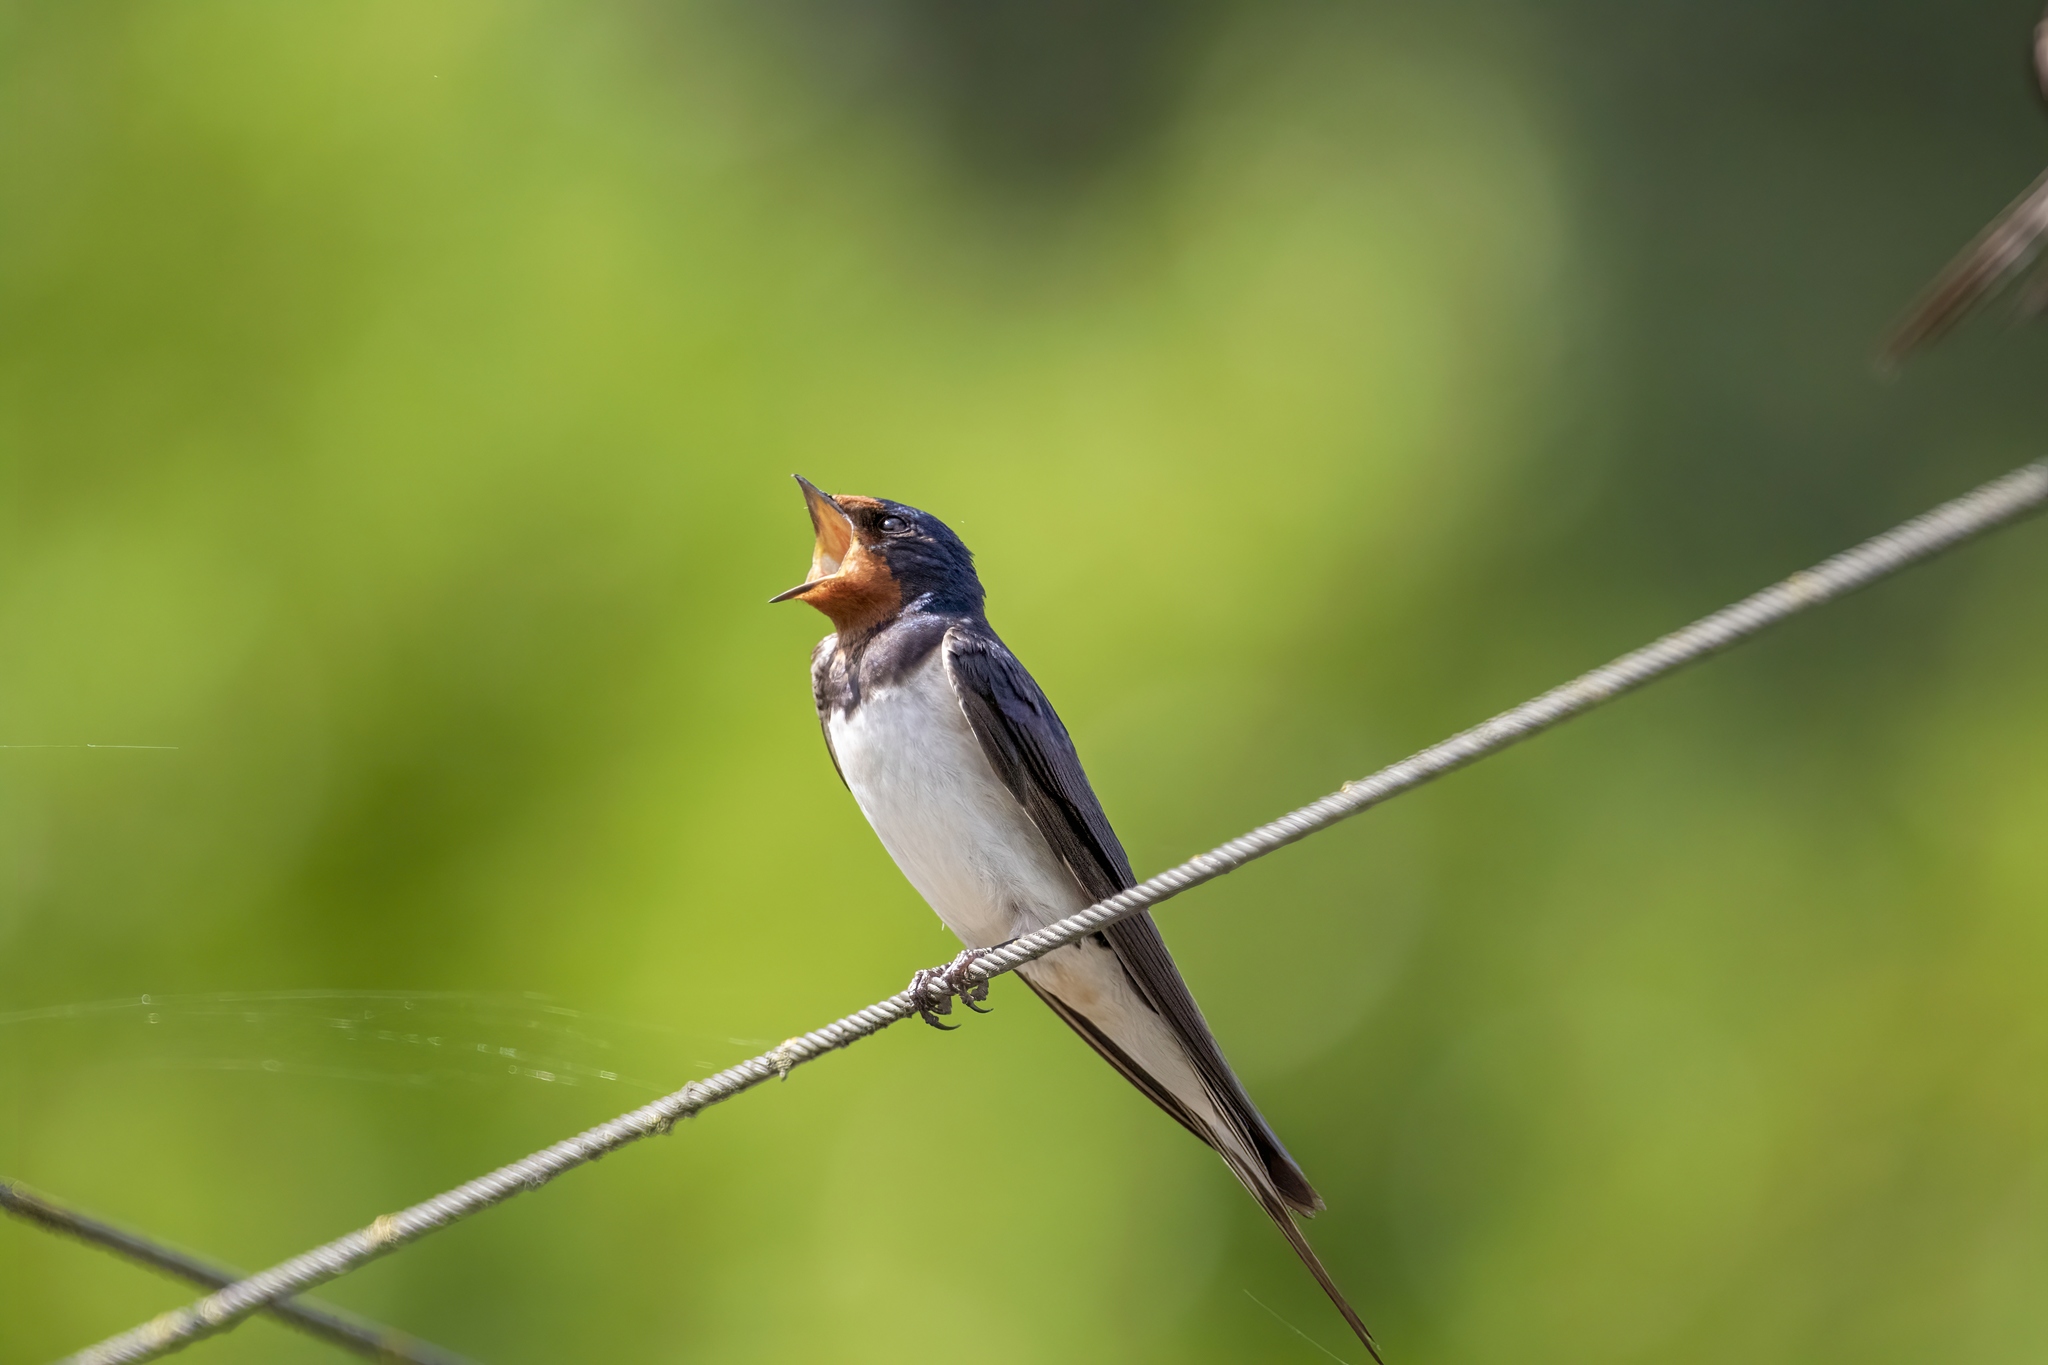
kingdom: Animalia
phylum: Chordata
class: Aves
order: Passeriformes
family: Hirundinidae
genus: Hirundo
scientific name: Hirundo rustica
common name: Barn swallow
